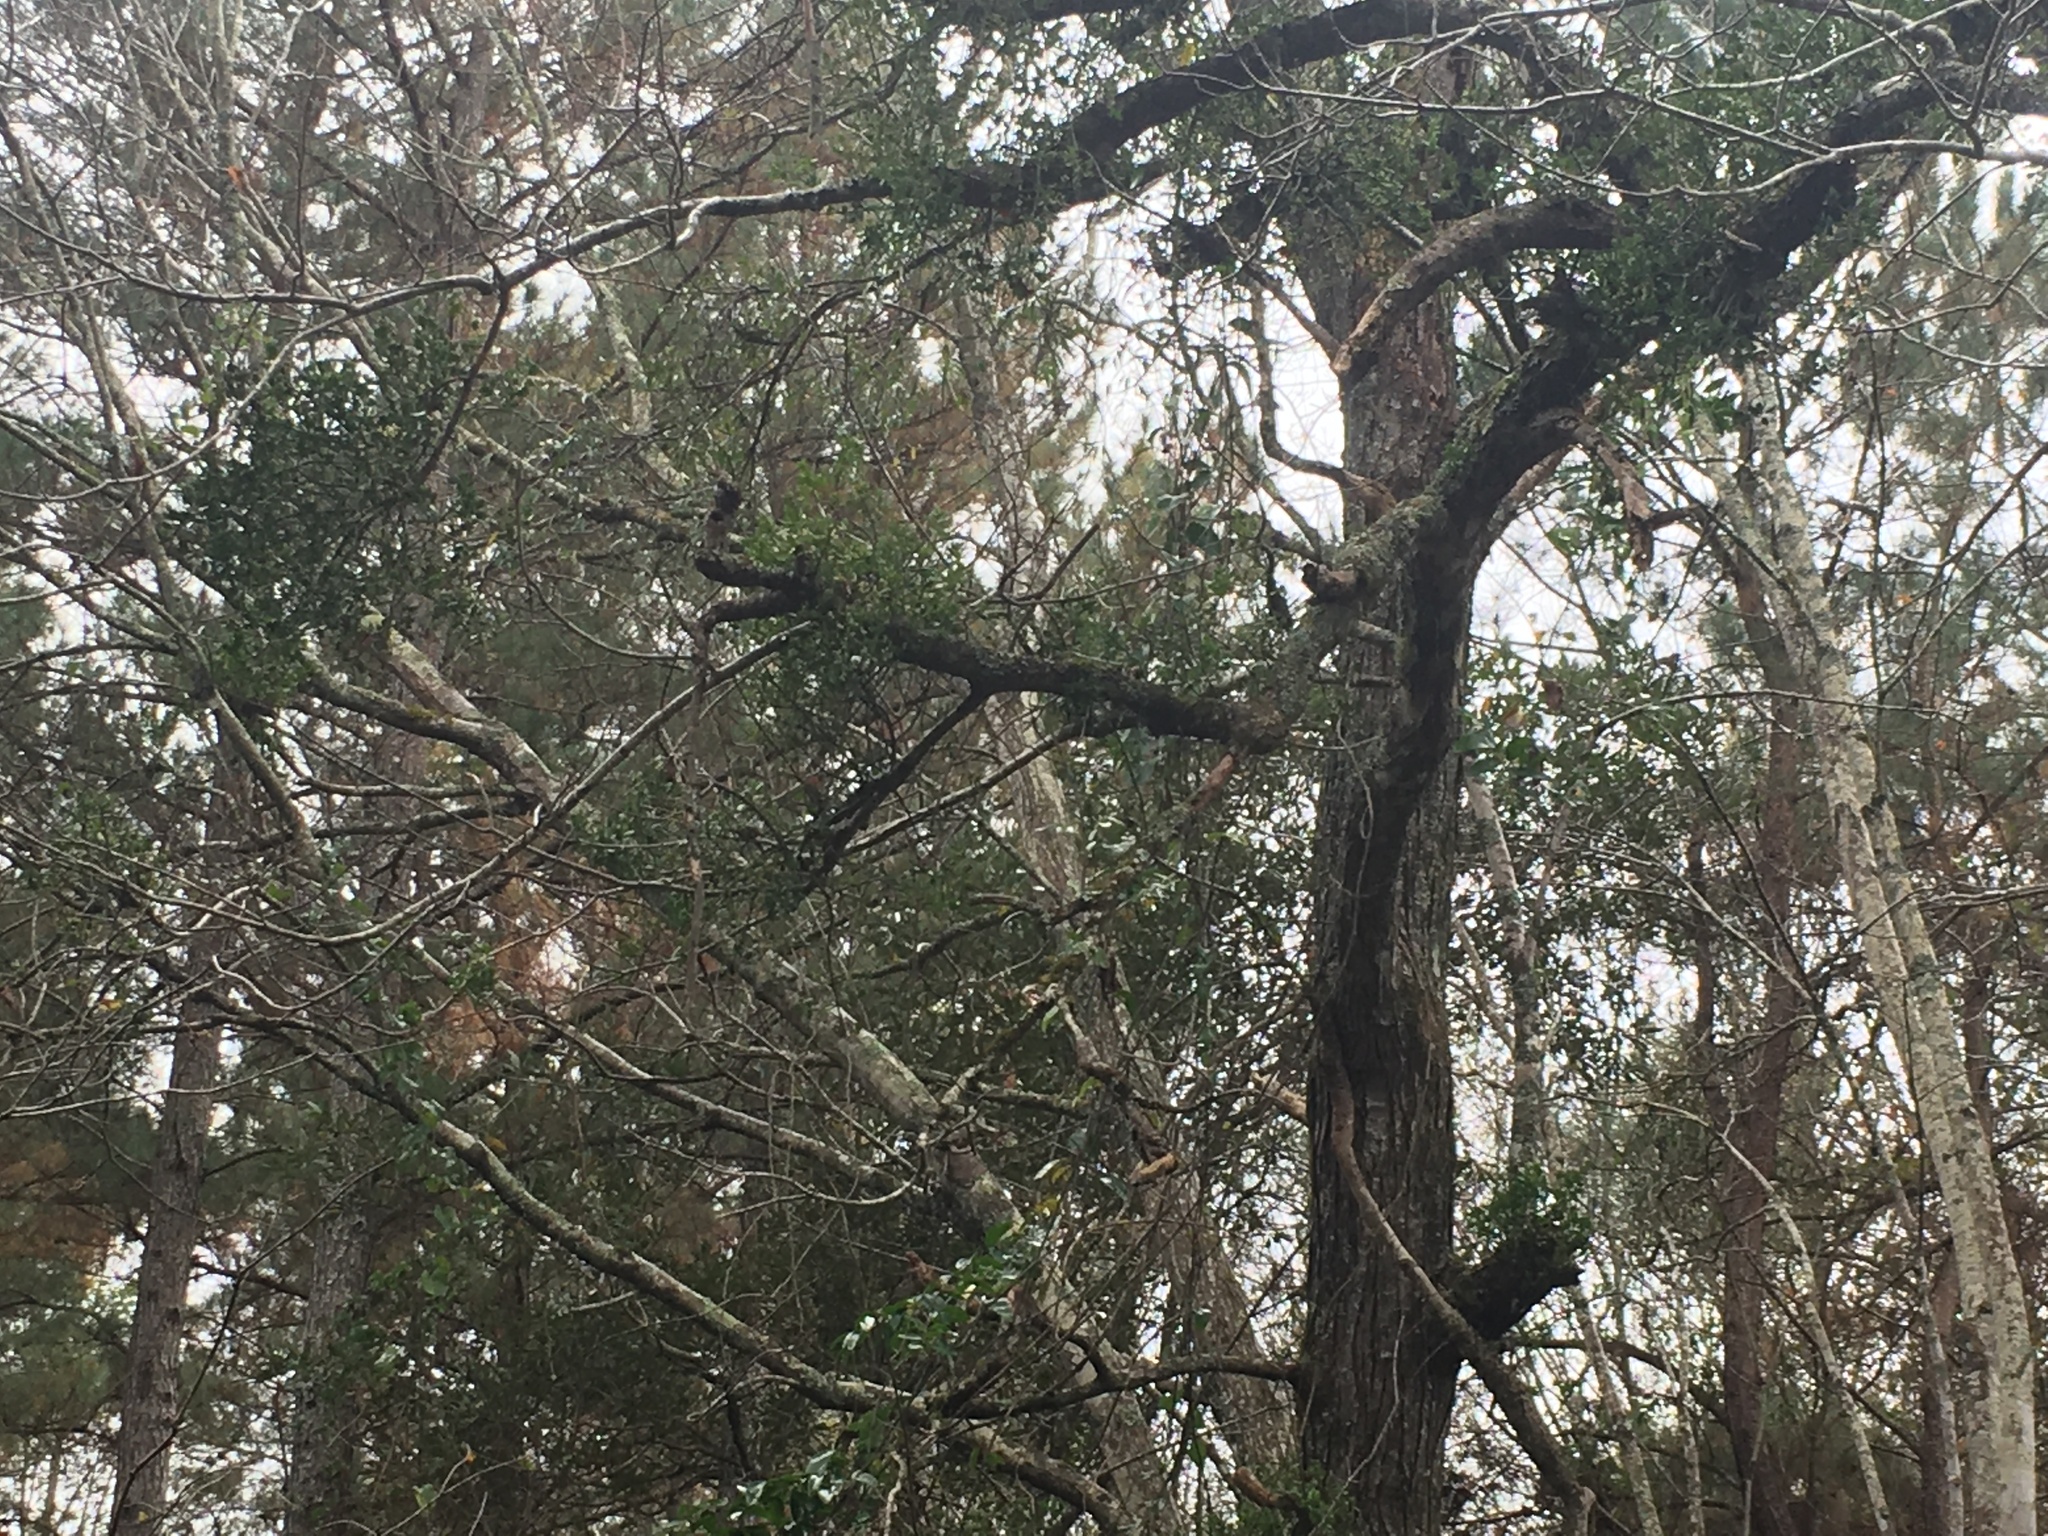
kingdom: Plantae
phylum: Tracheophyta
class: Magnoliopsida
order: Santalales
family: Viscaceae
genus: Phoradendron
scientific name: Phoradendron leucarpum
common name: Pacific mistletoe
